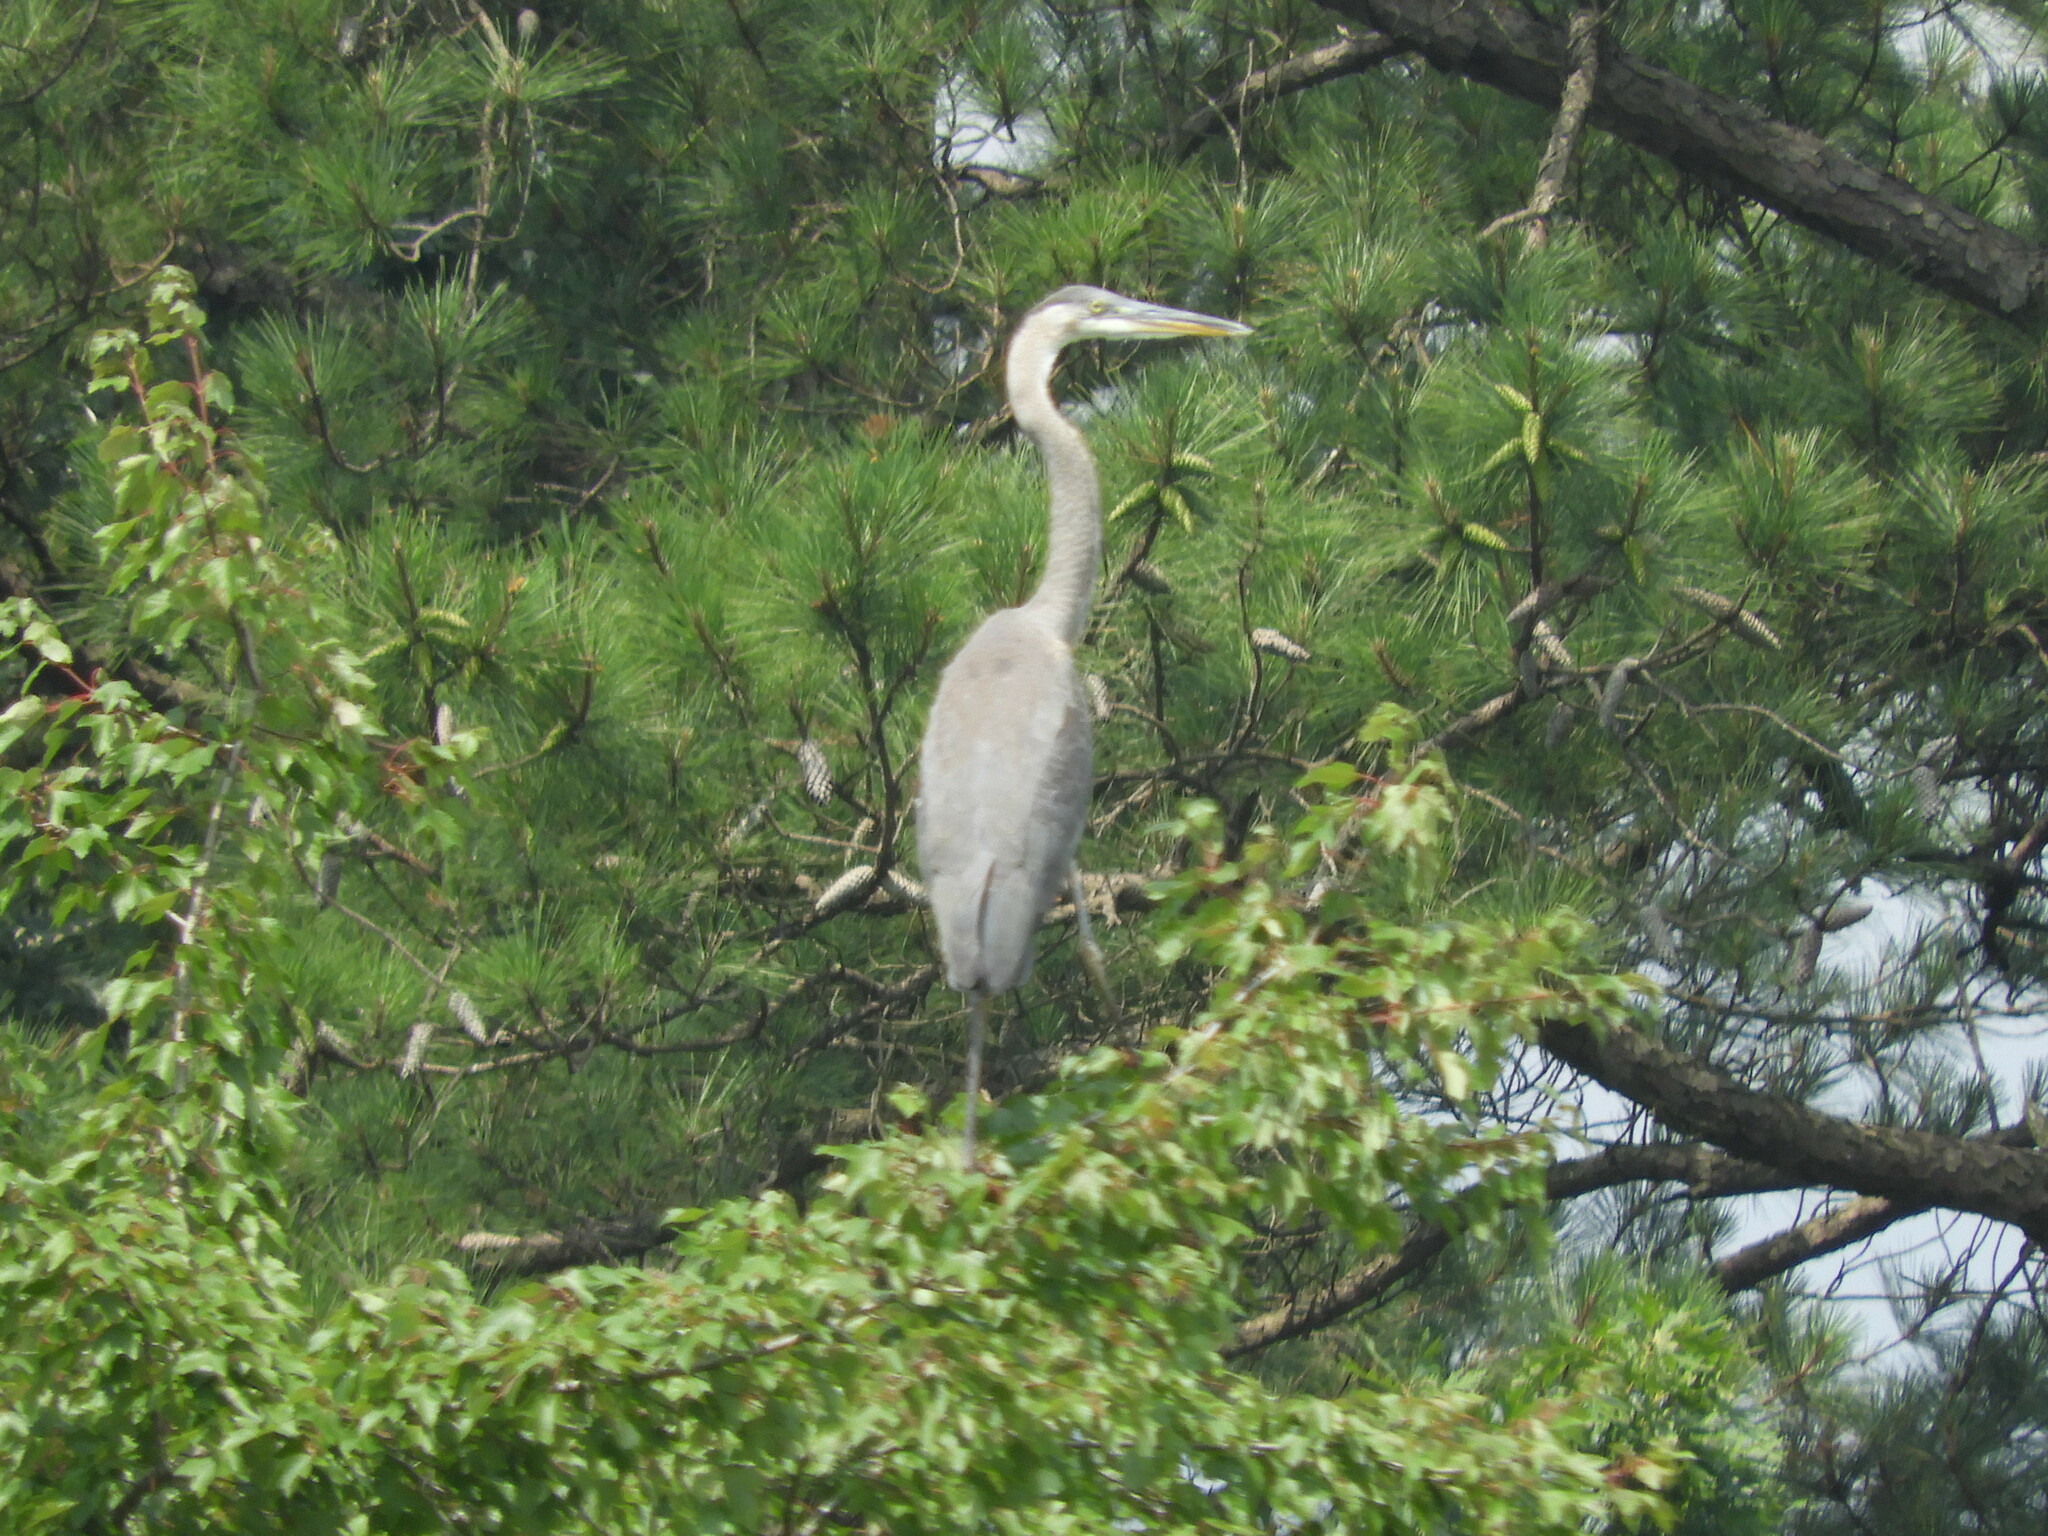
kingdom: Animalia
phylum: Chordata
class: Aves
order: Pelecaniformes
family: Ardeidae
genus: Ardea
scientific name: Ardea herodias
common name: Great blue heron
